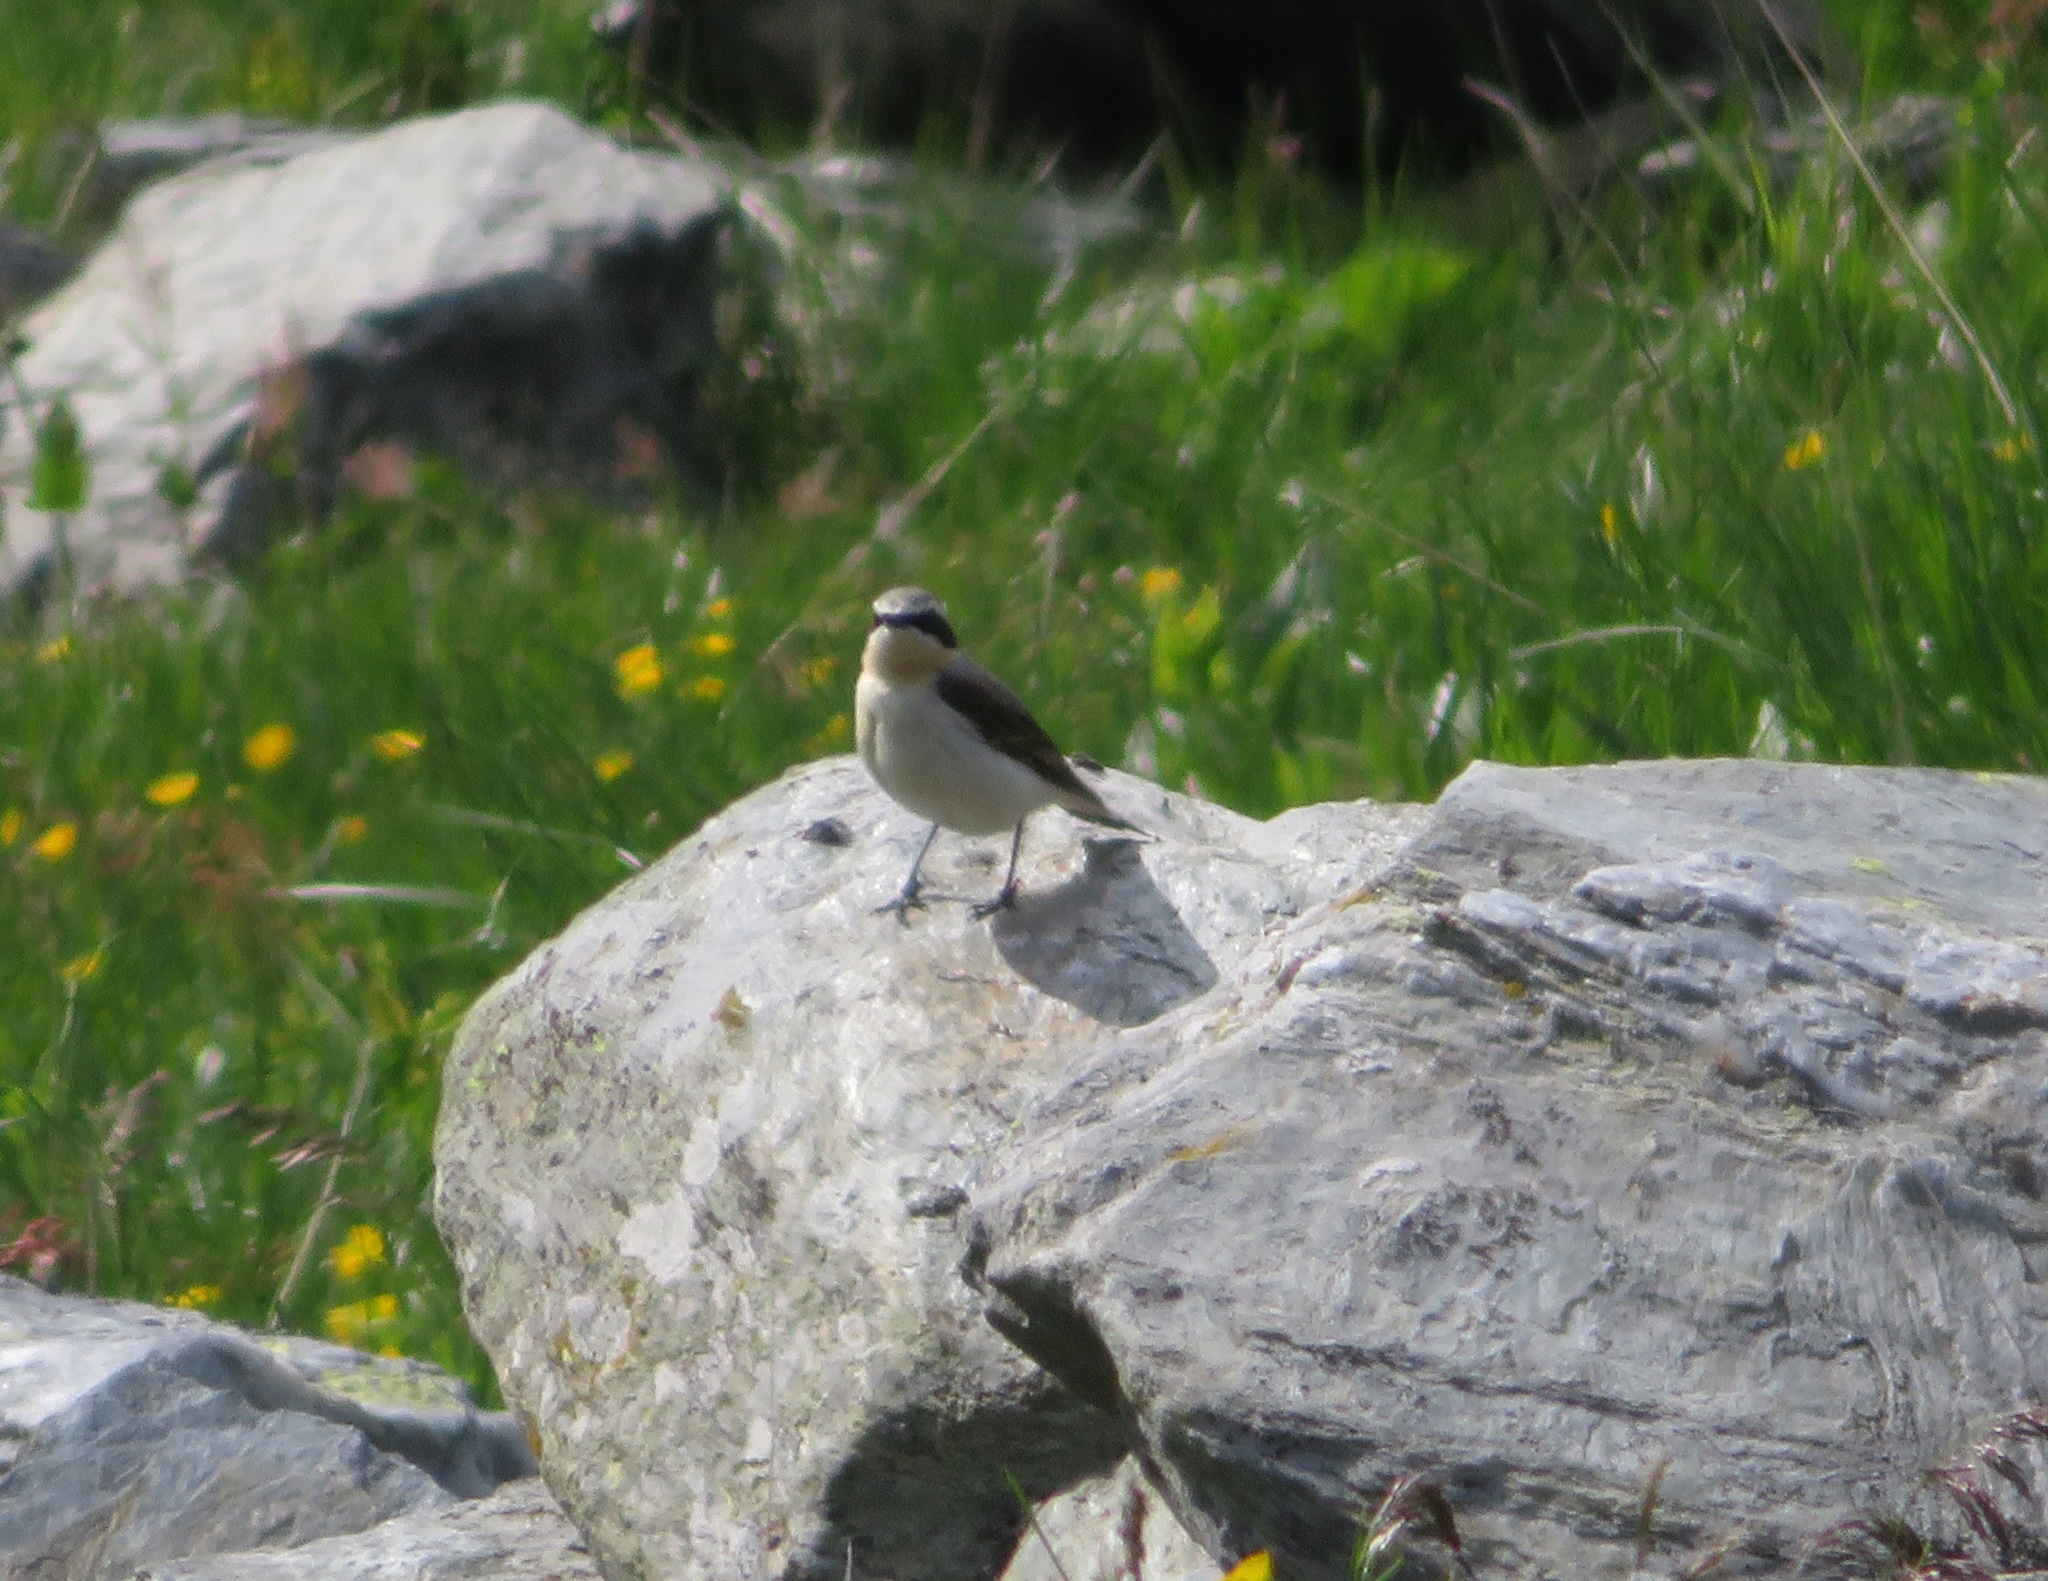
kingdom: Animalia
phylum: Chordata
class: Aves
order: Passeriformes
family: Muscicapidae
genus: Oenanthe
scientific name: Oenanthe oenanthe
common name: Northern wheatear
